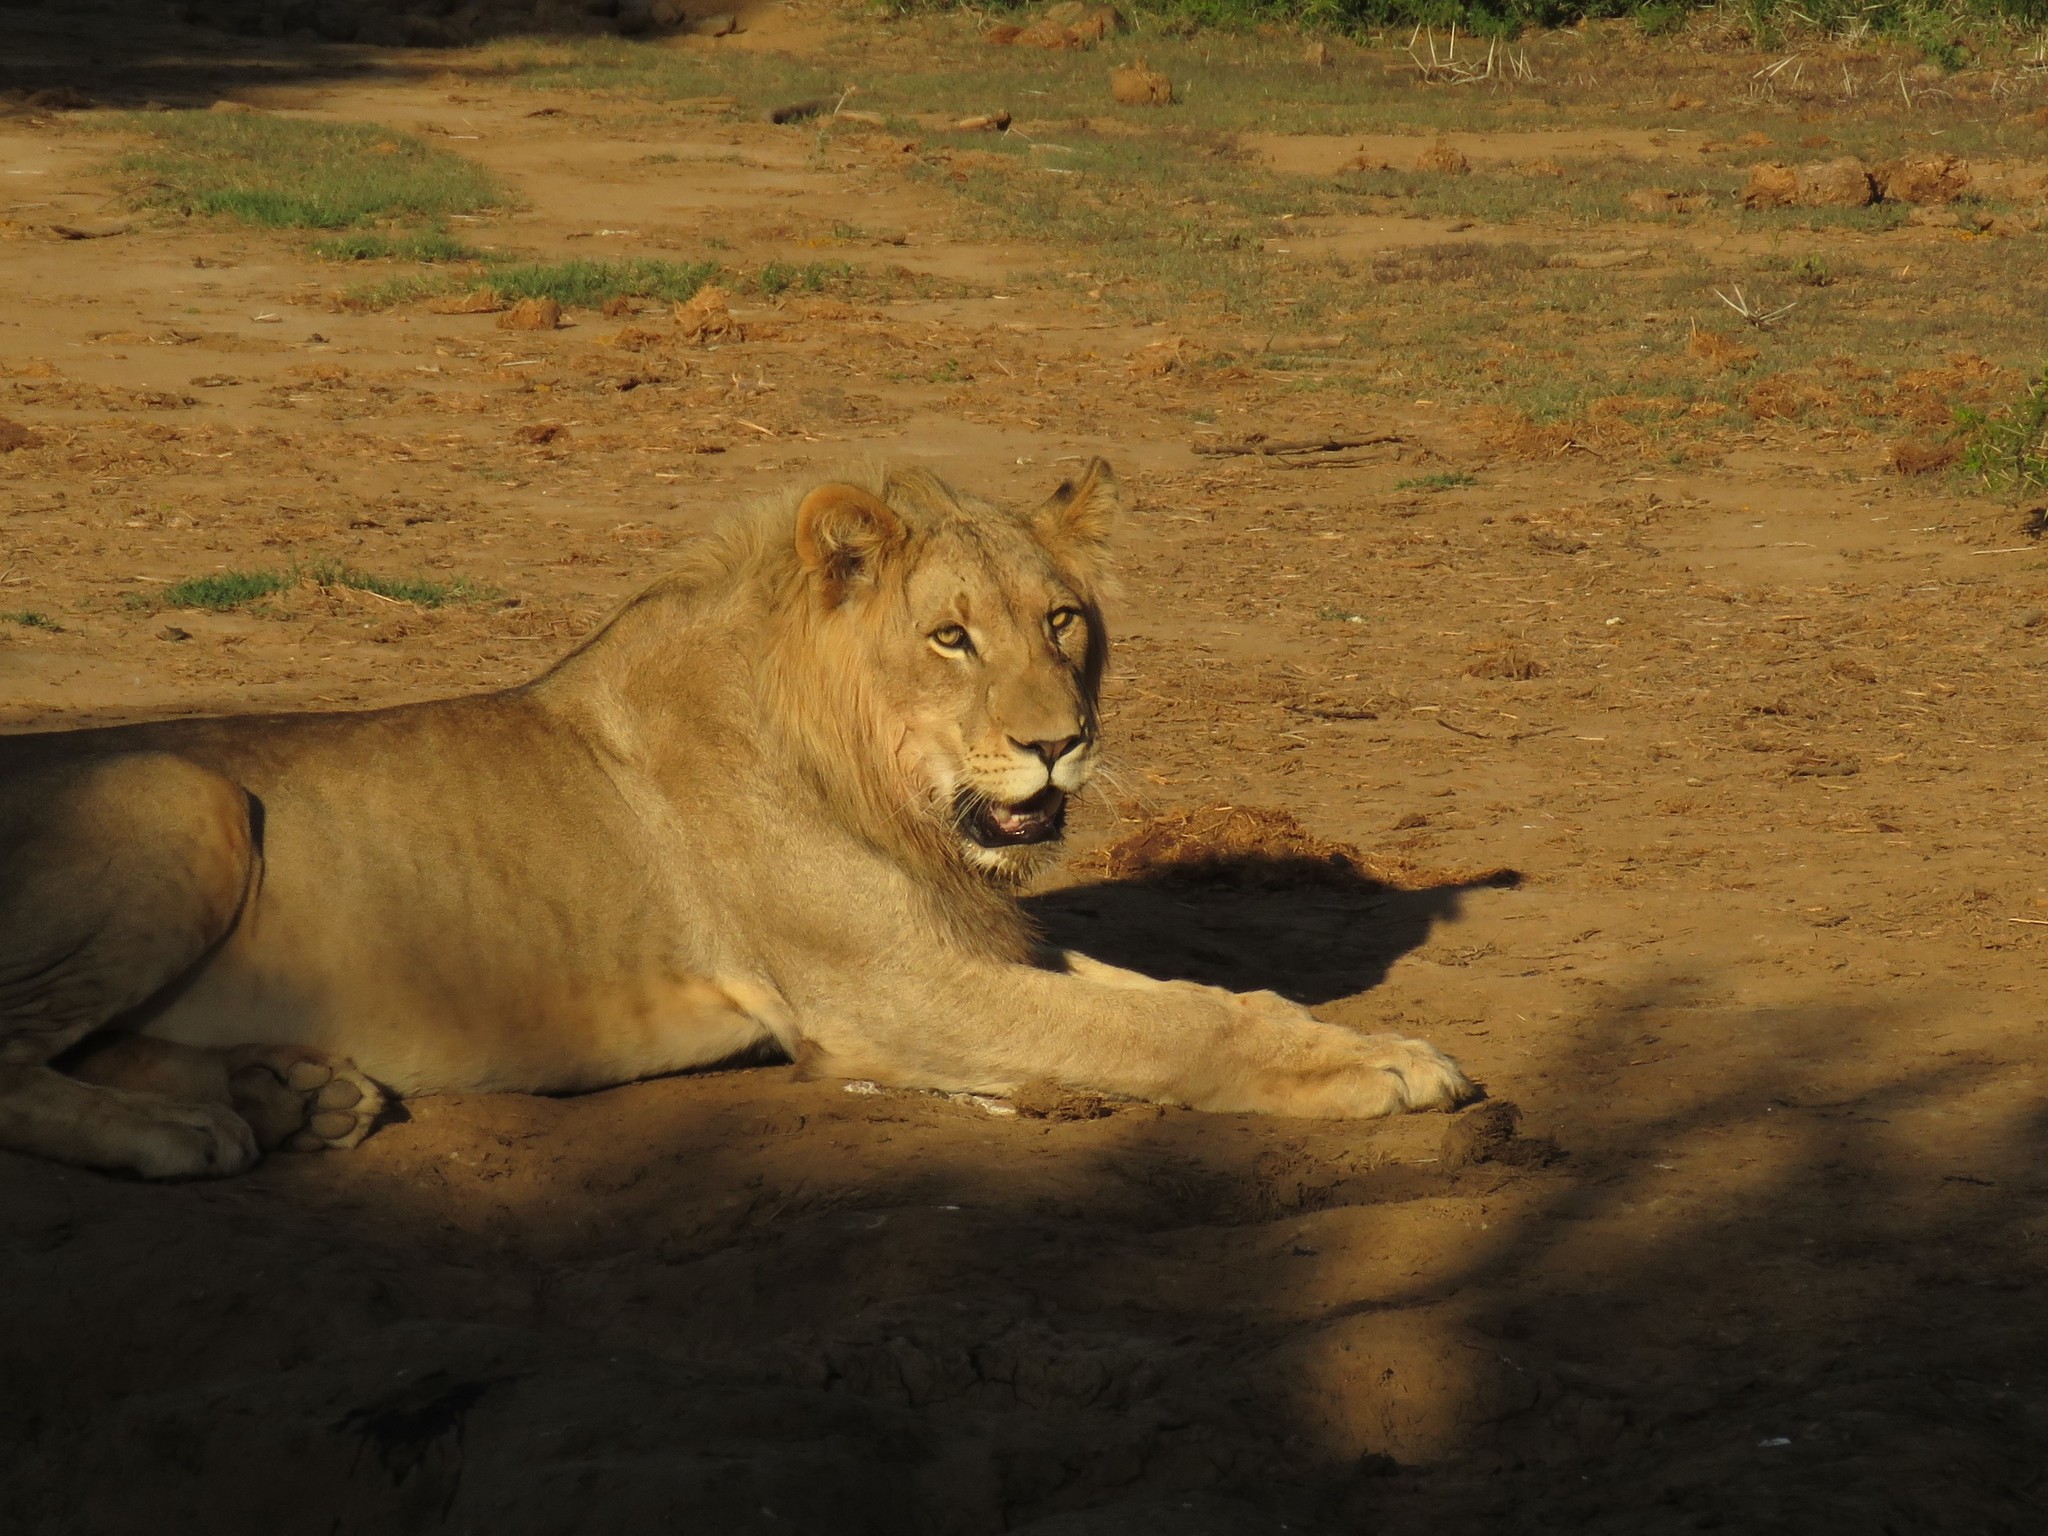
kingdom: Animalia
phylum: Chordata
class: Mammalia
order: Carnivora
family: Felidae
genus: Panthera
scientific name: Panthera leo
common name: Lion
